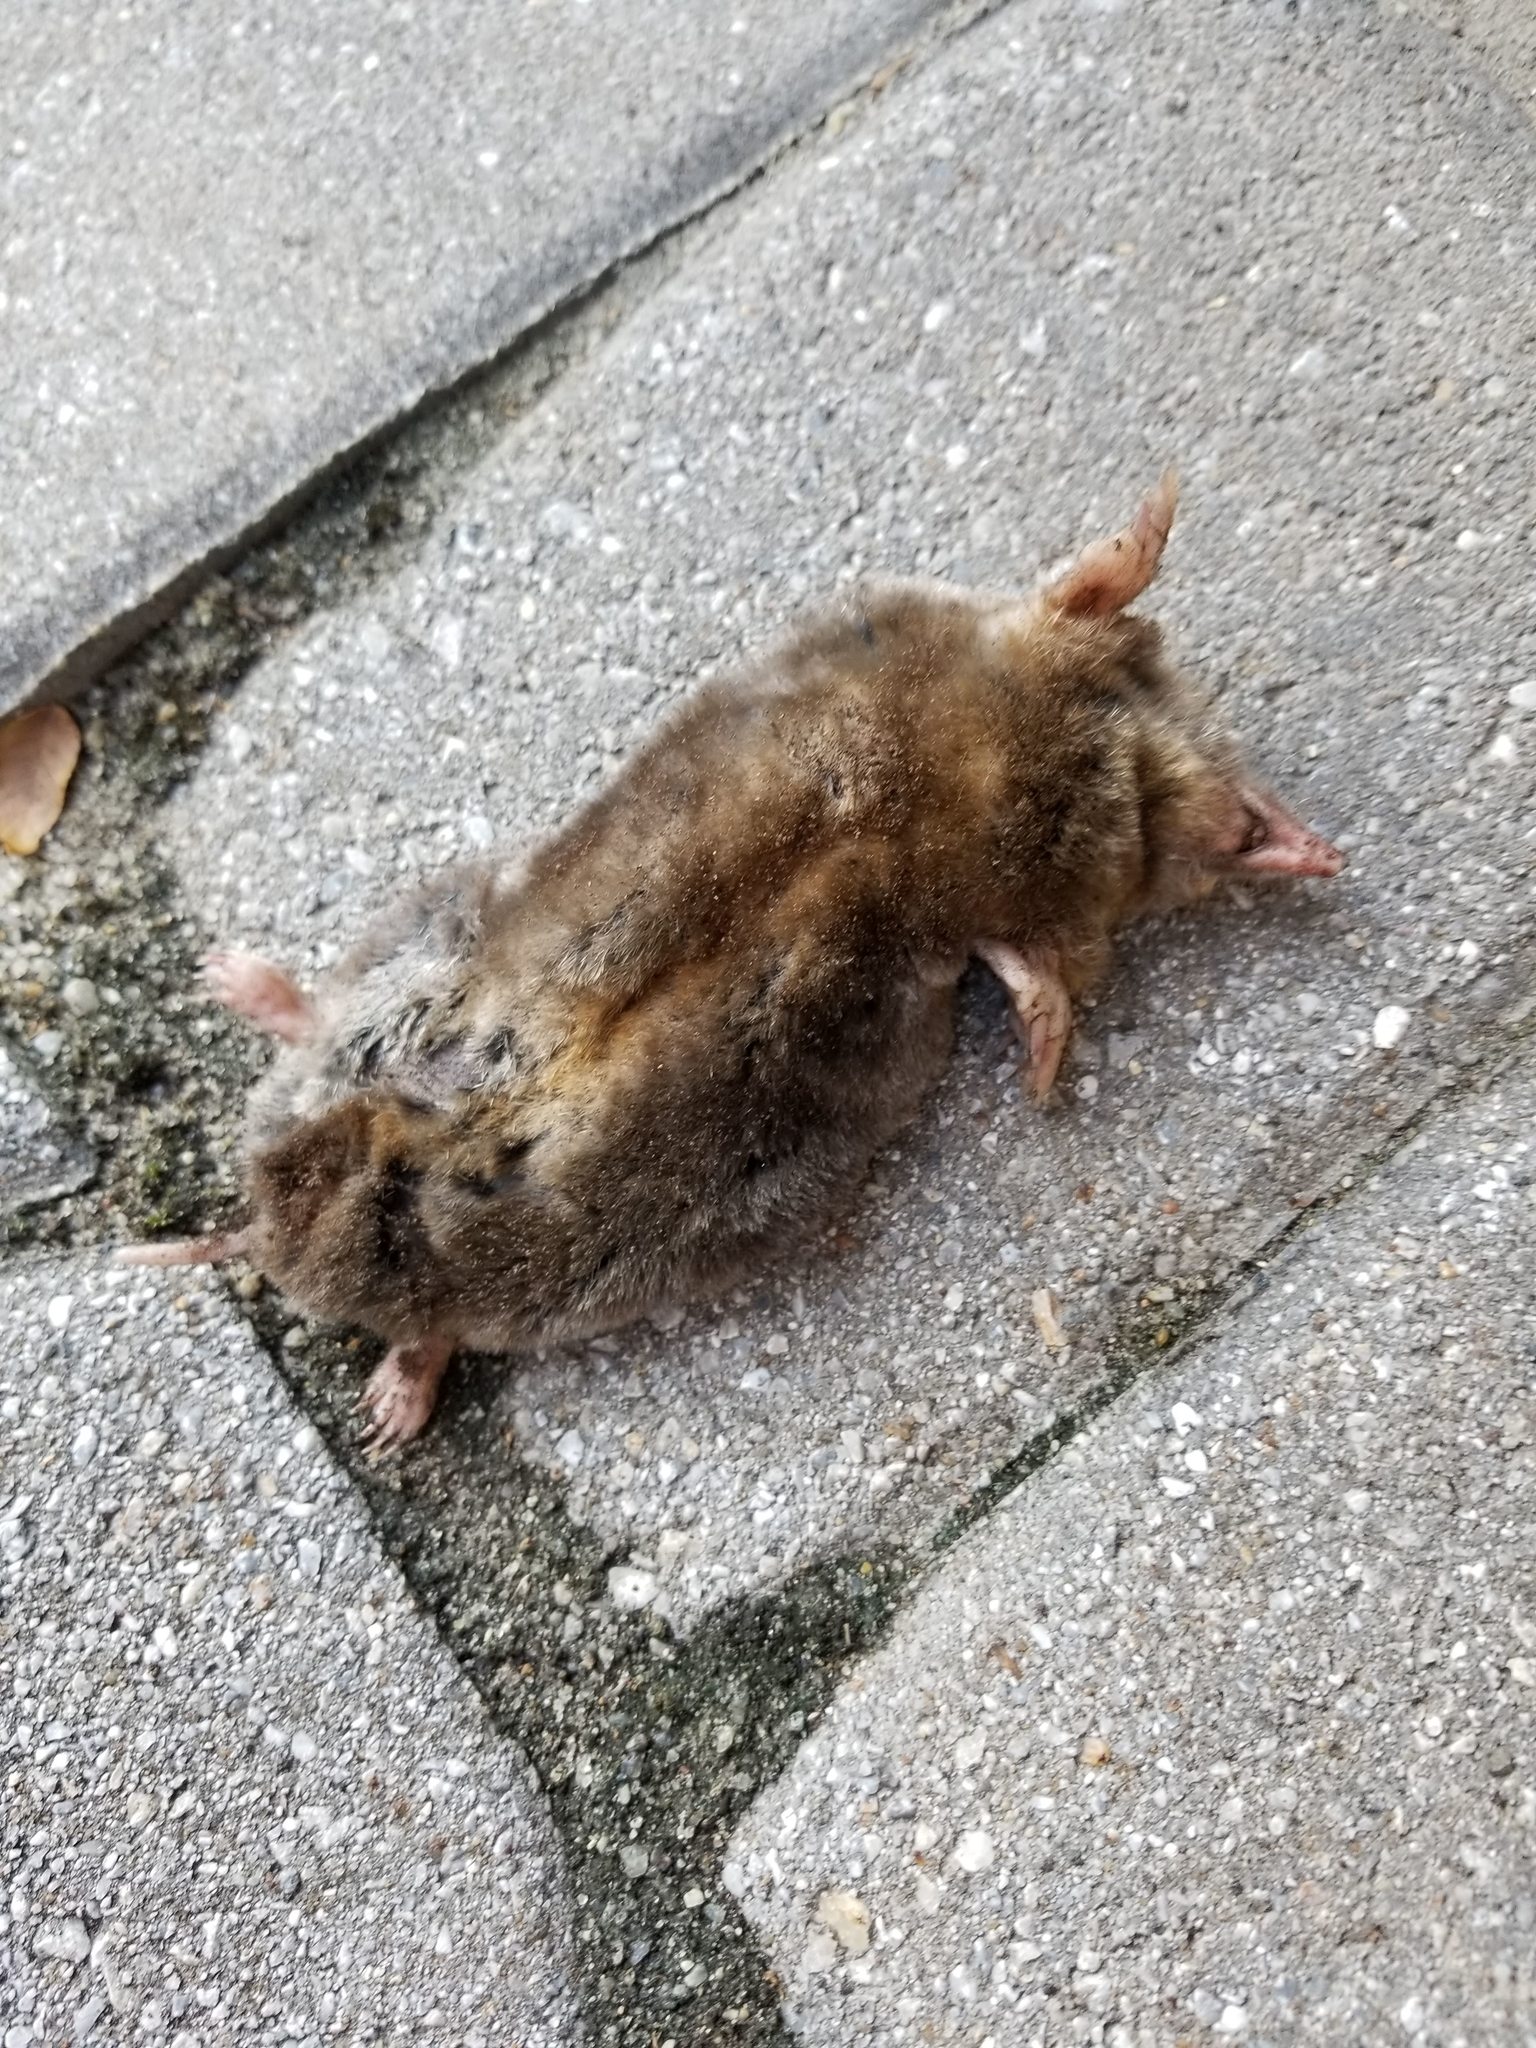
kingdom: Animalia
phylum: Chordata
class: Mammalia
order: Soricomorpha
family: Talpidae
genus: Scalopus
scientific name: Scalopus aquaticus
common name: Eastern mole
